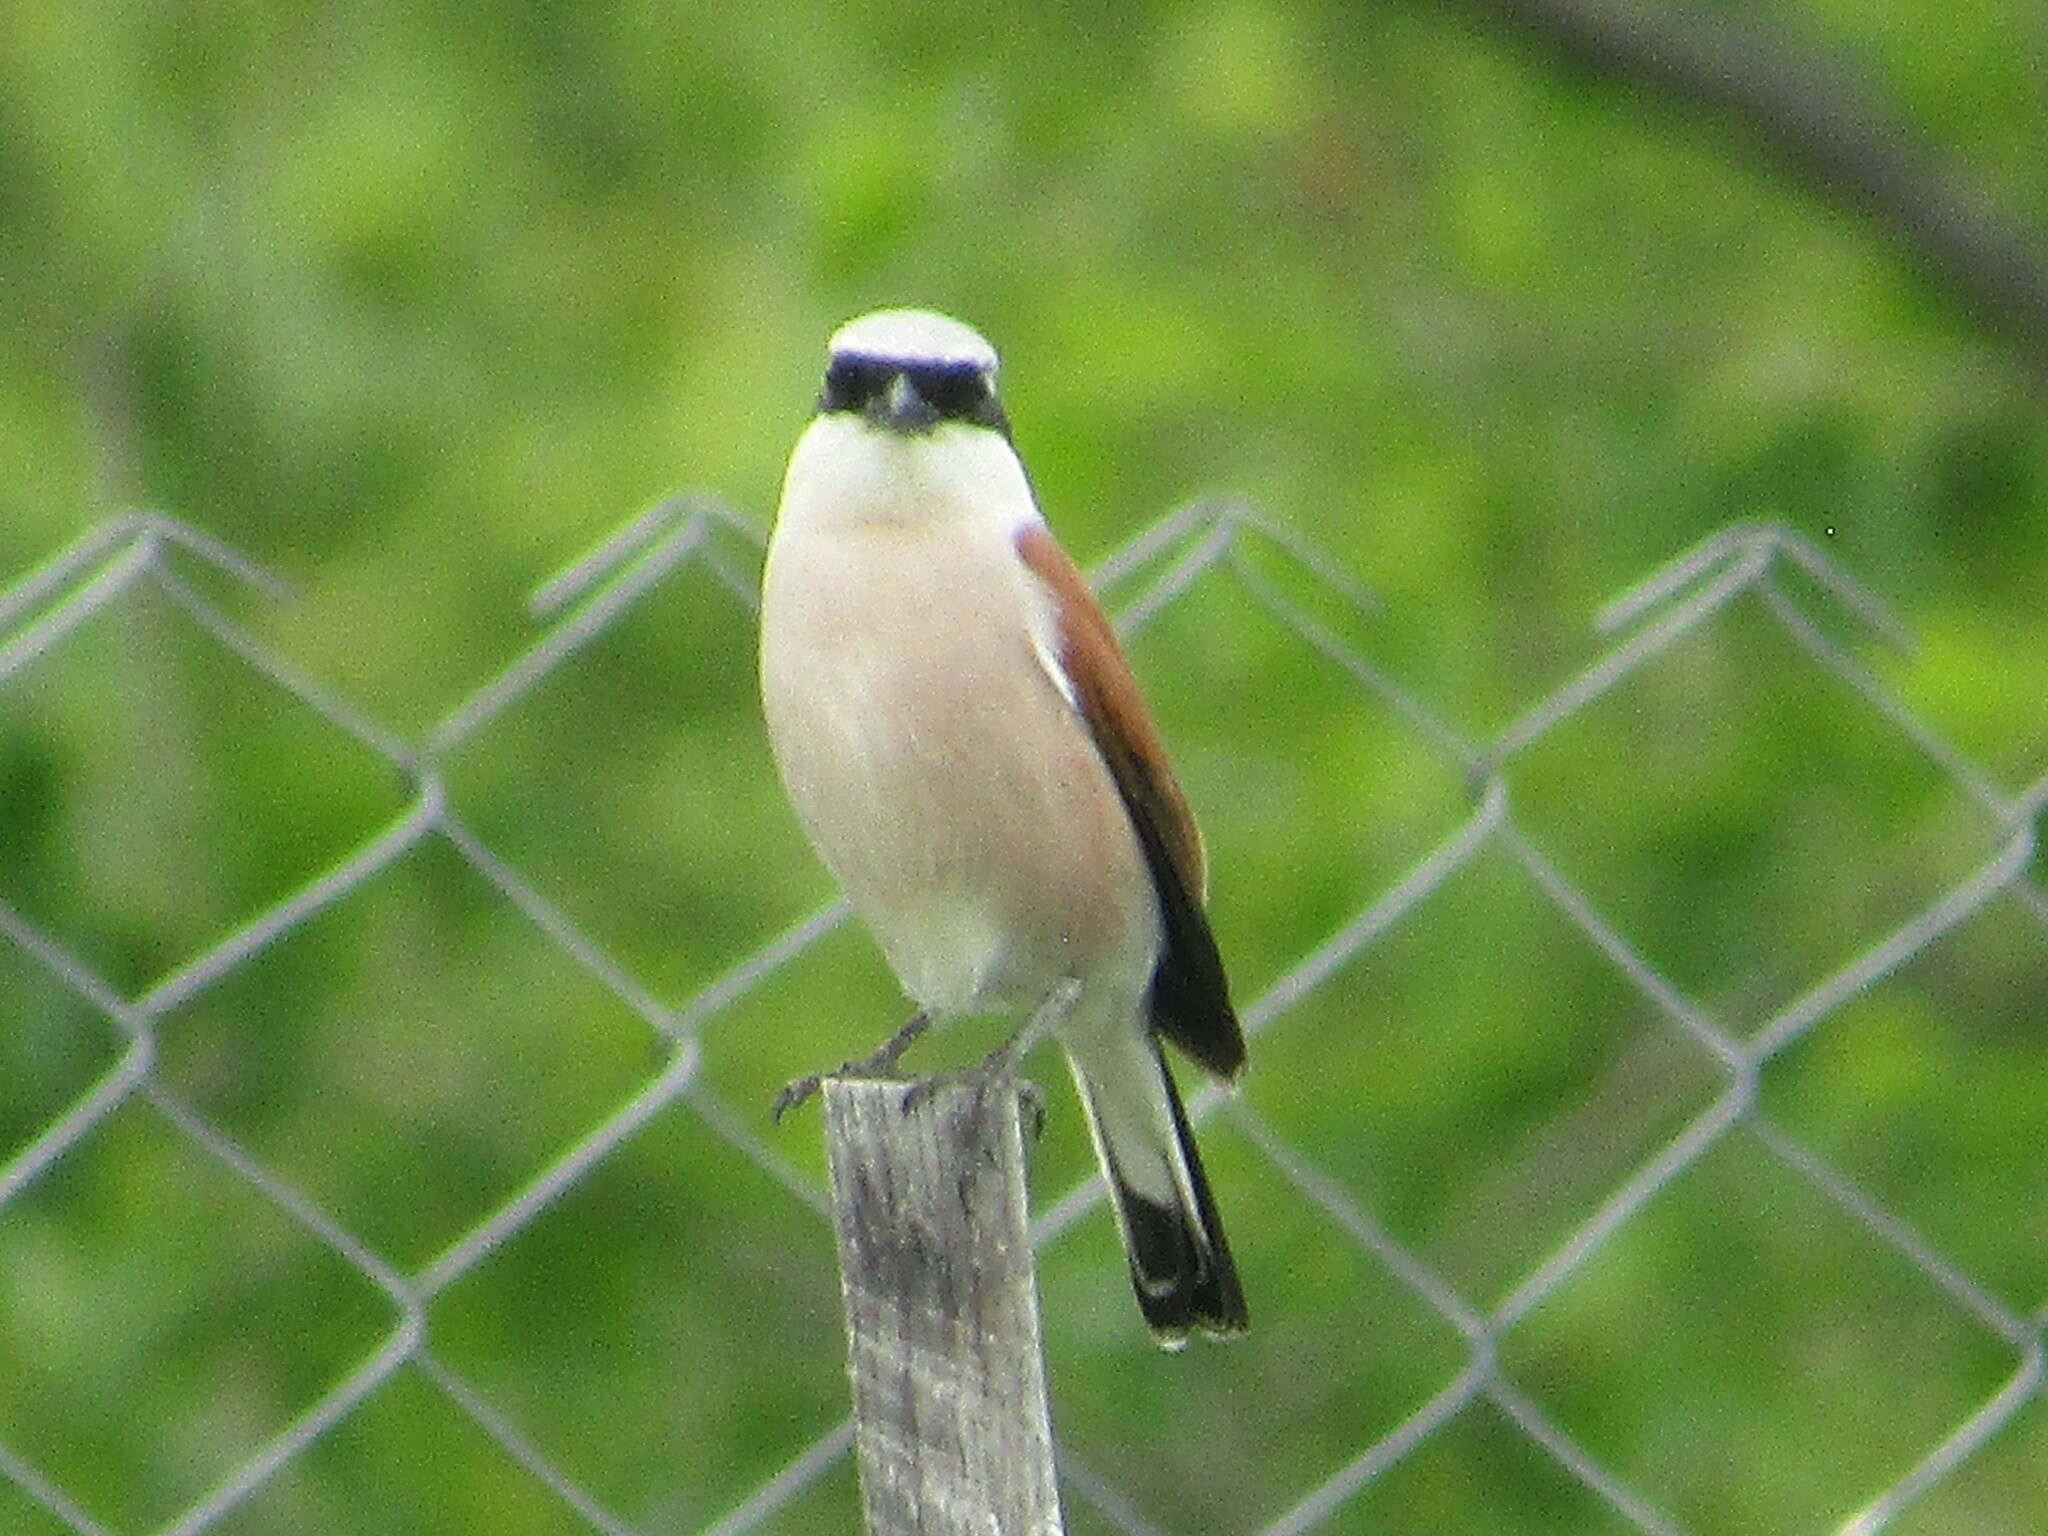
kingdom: Animalia
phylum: Chordata
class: Aves
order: Passeriformes
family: Laniidae
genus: Lanius
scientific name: Lanius collurio
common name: Red-backed shrike
